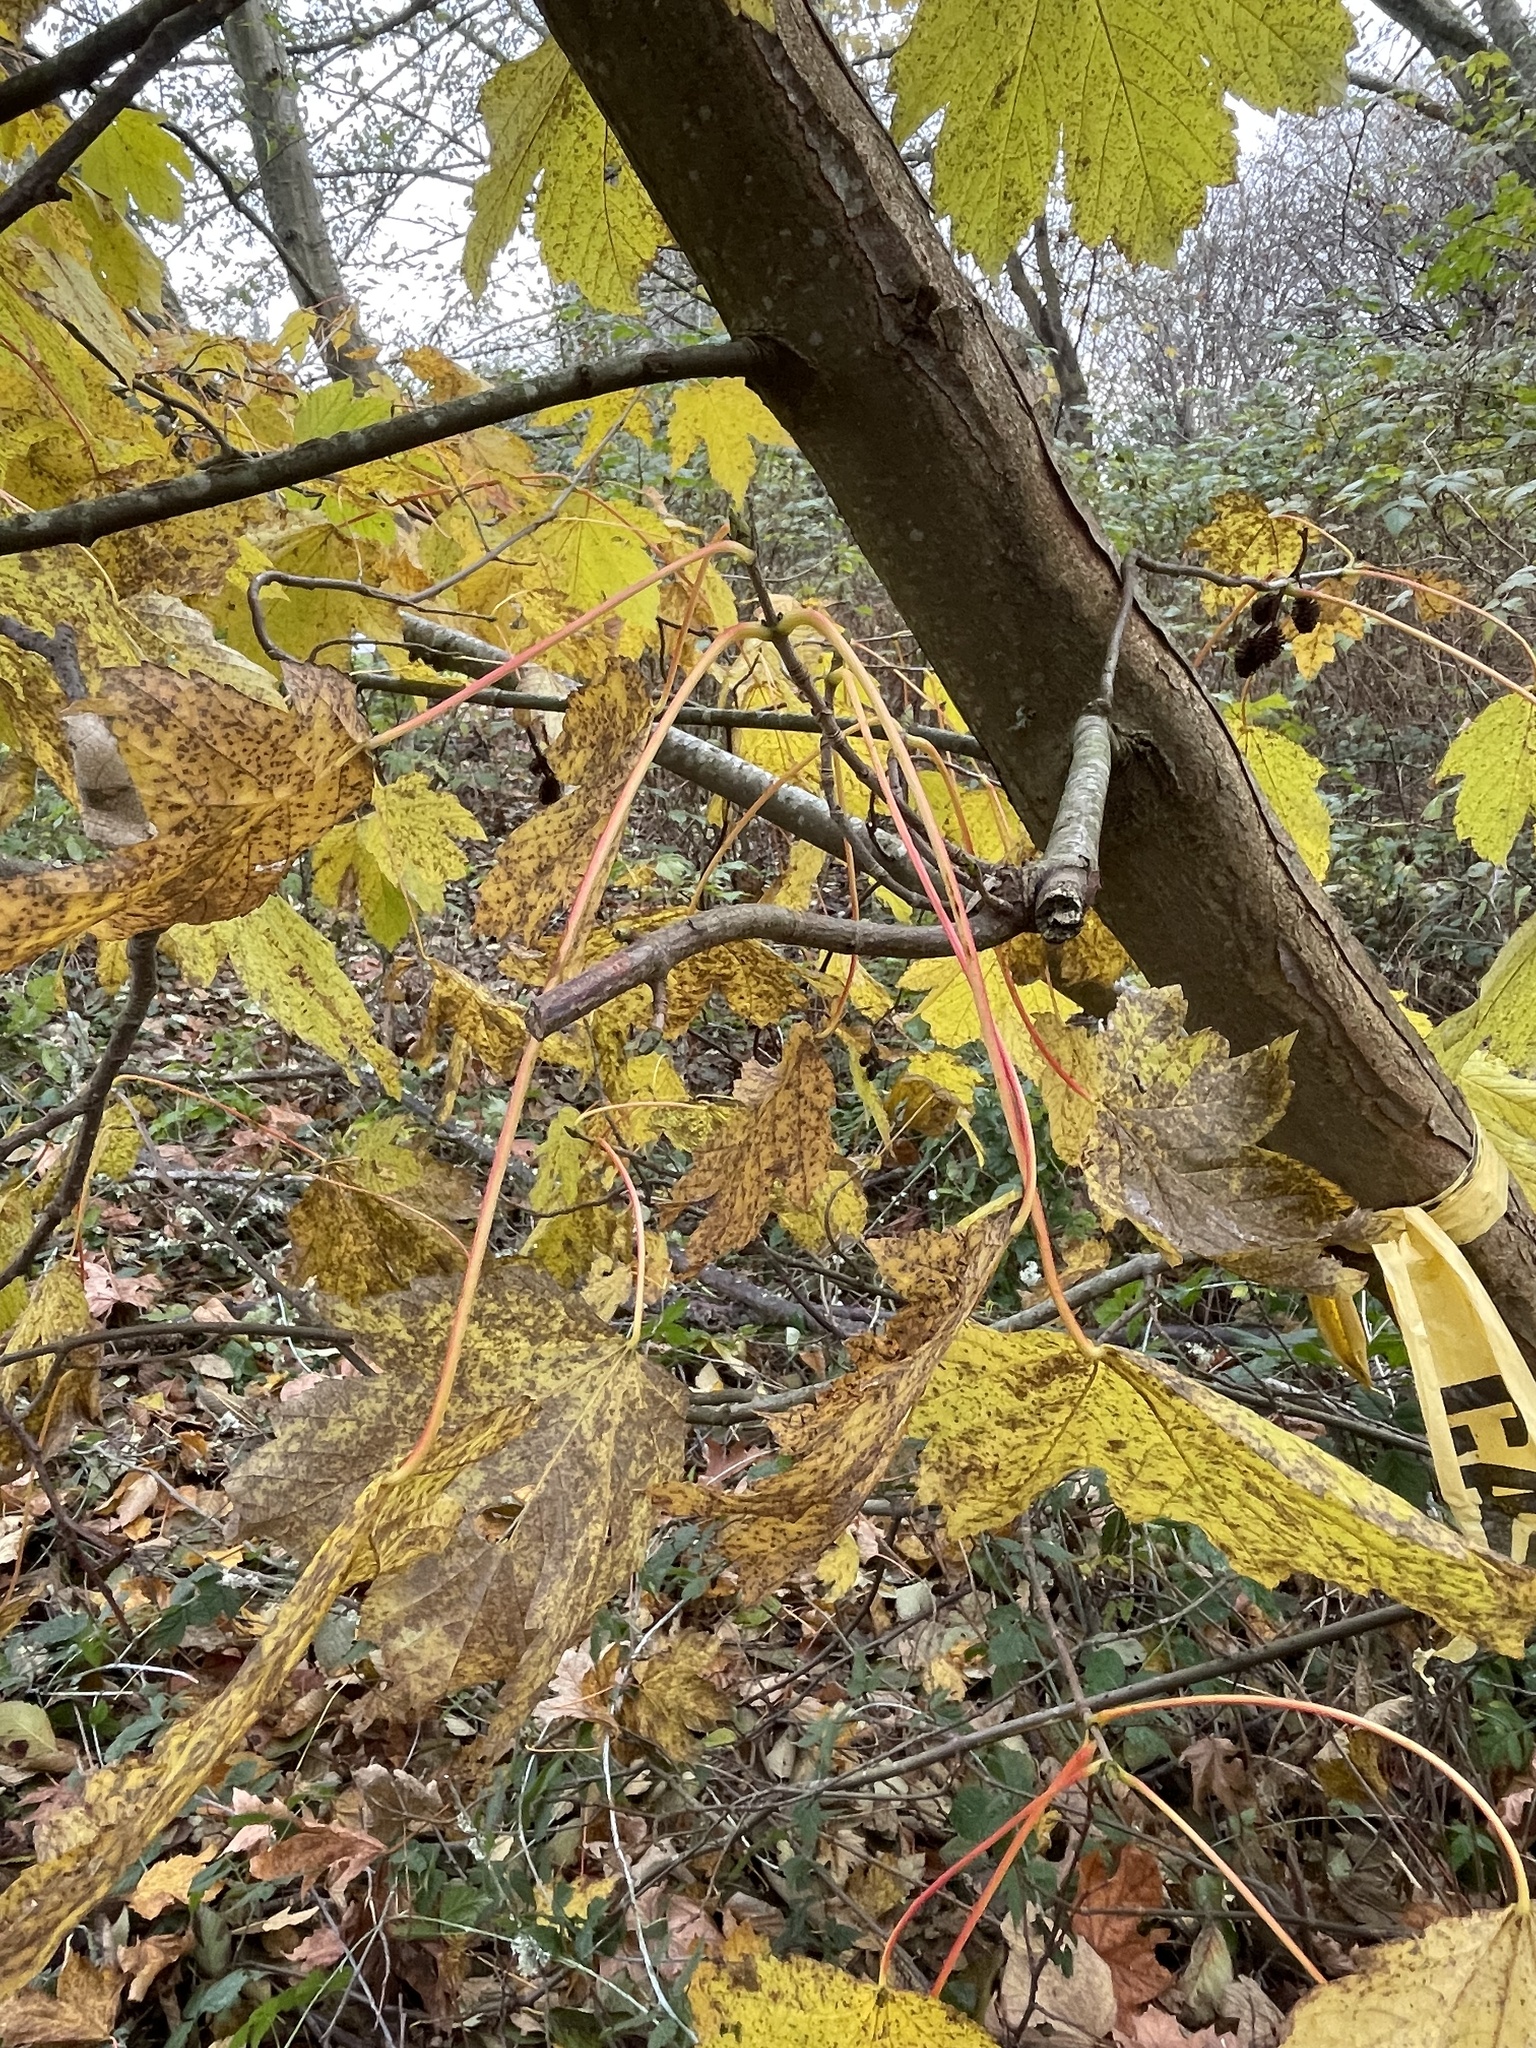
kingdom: Plantae
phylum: Tracheophyta
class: Magnoliopsida
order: Sapindales
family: Sapindaceae
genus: Acer
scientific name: Acer pseudoplatanus
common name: Sycamore
